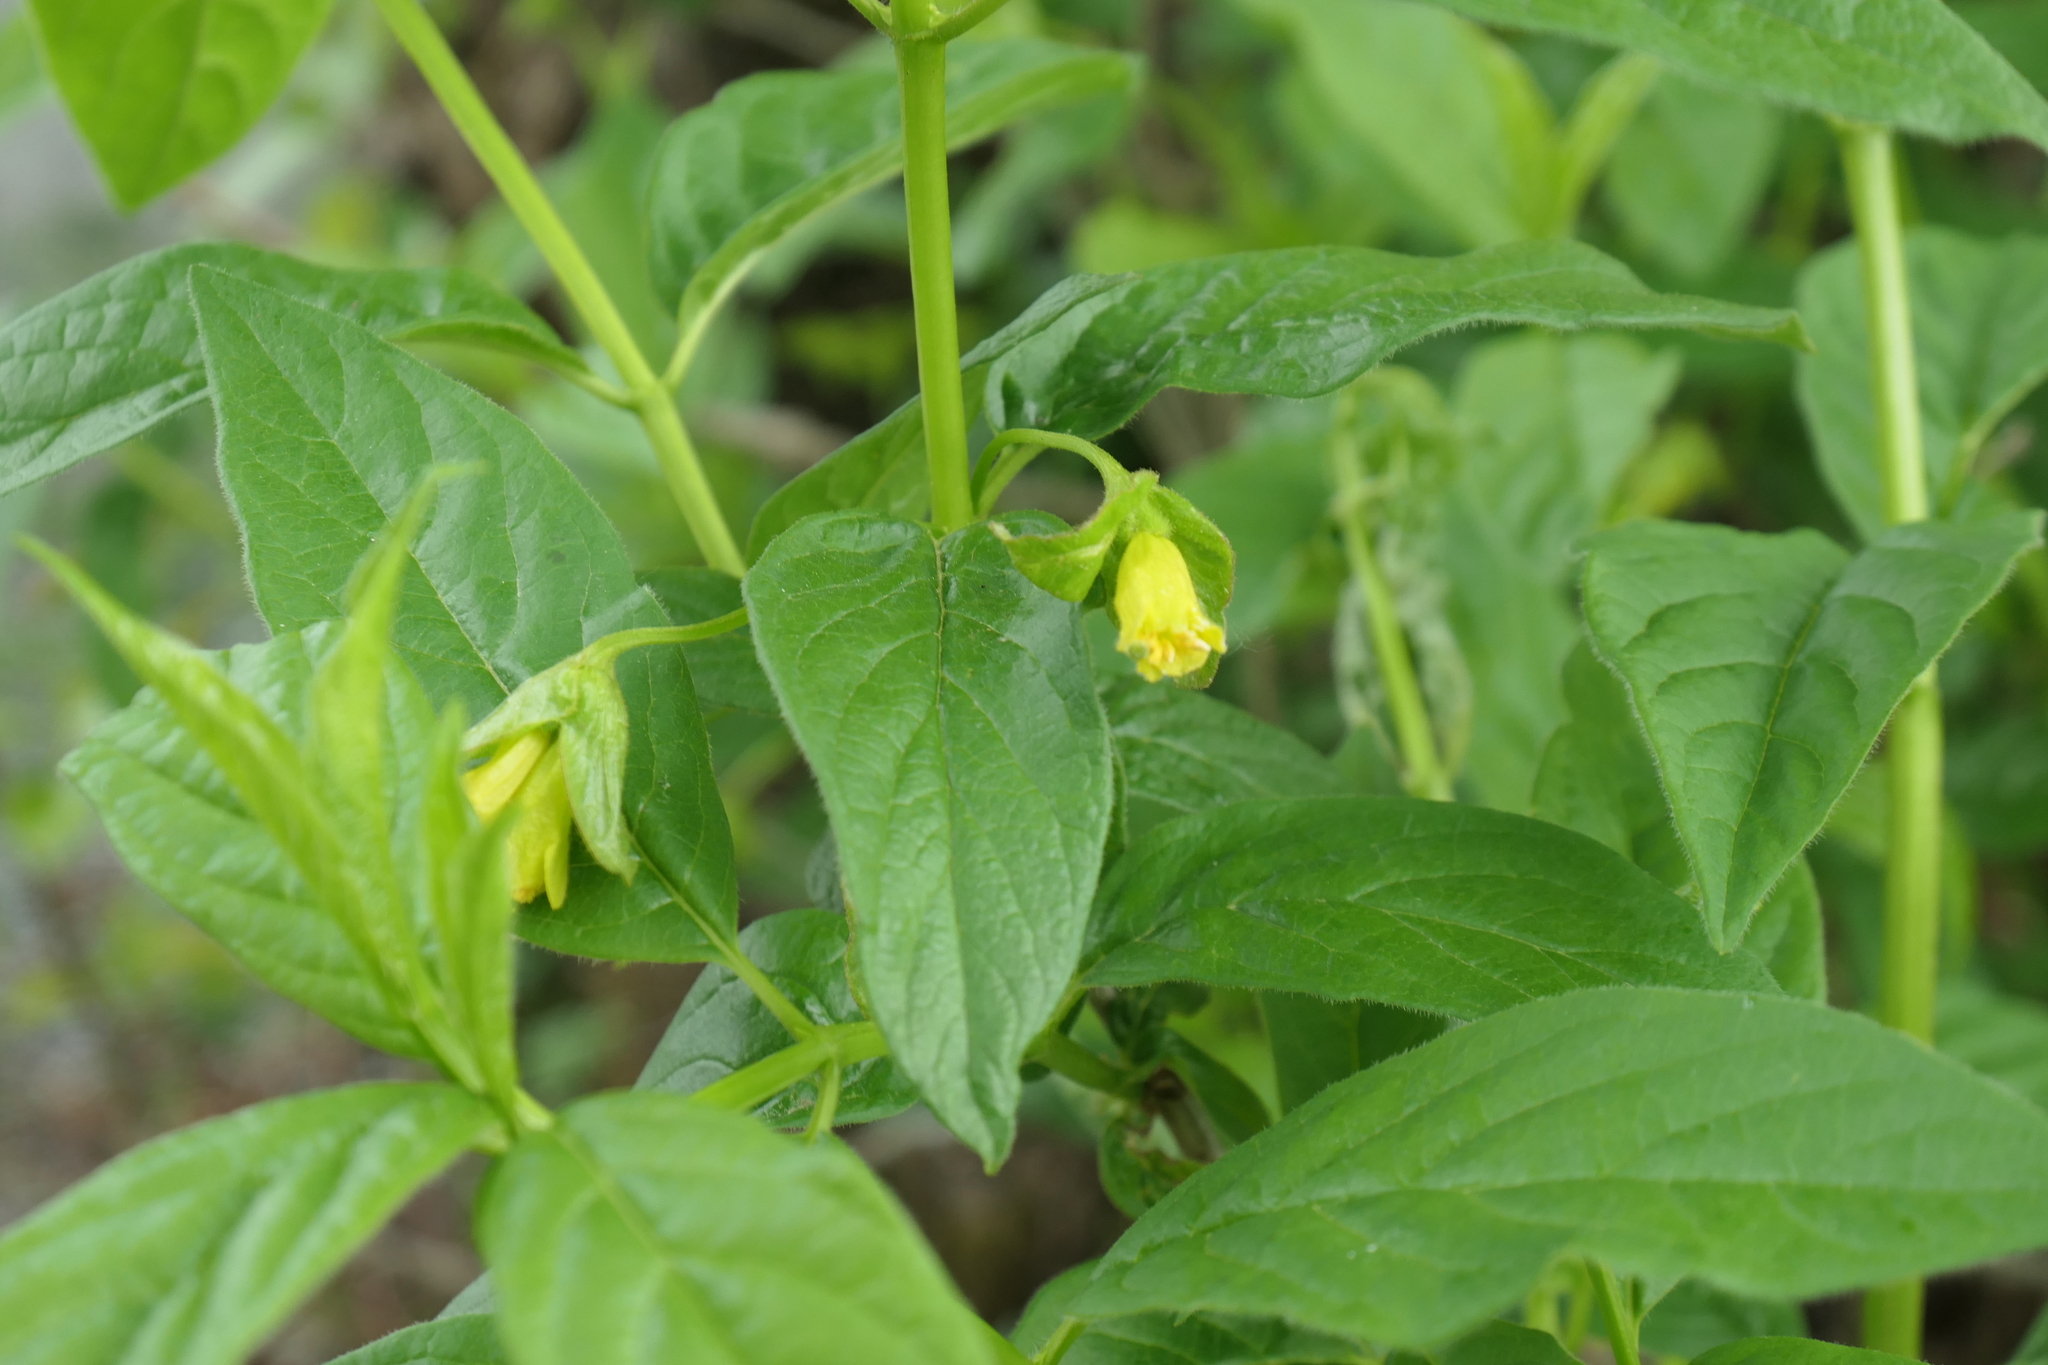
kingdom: Plantae
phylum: Tracheophyta
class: Magnoliopsida
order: Dipsacales
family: Caprifoliaceae
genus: Lonicera
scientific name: Lonicera involucrata
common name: Californian honeysuckle
